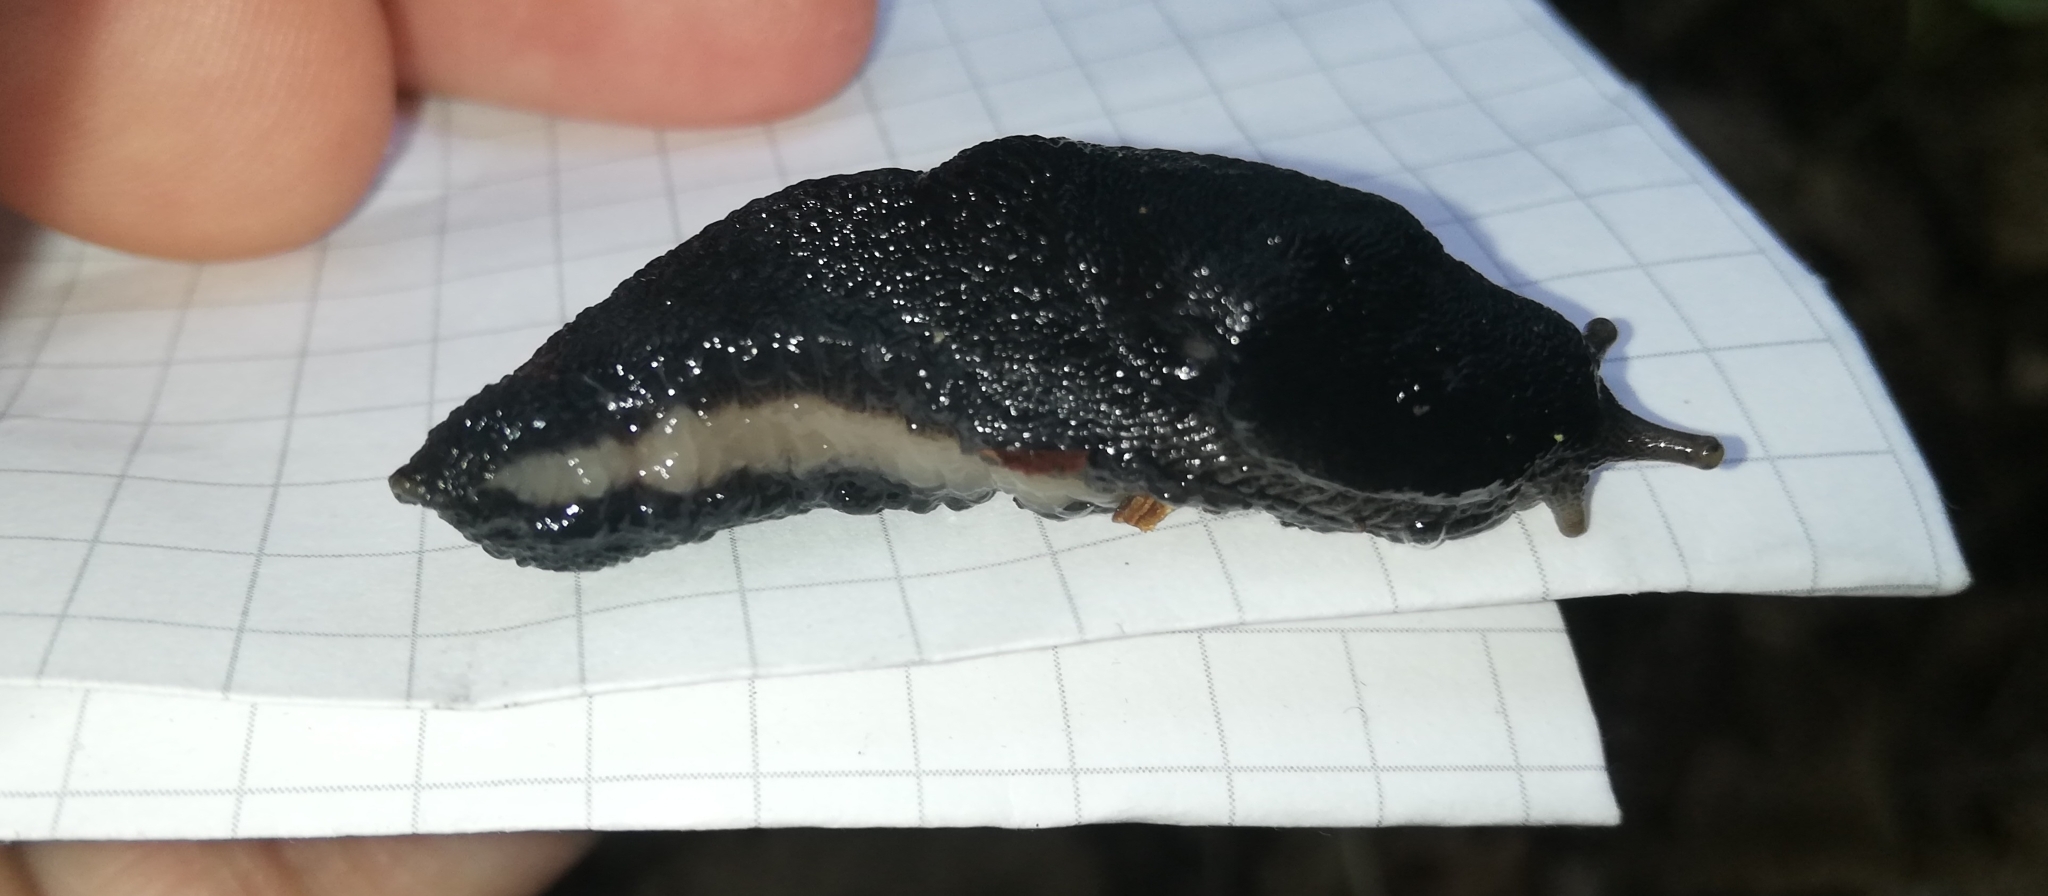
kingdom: Animalia
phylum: Mollusca
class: Gastropoda
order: Stylommatophora
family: Limacidae
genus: Limax
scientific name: Limax cinereoniger
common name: Ash-black slug
